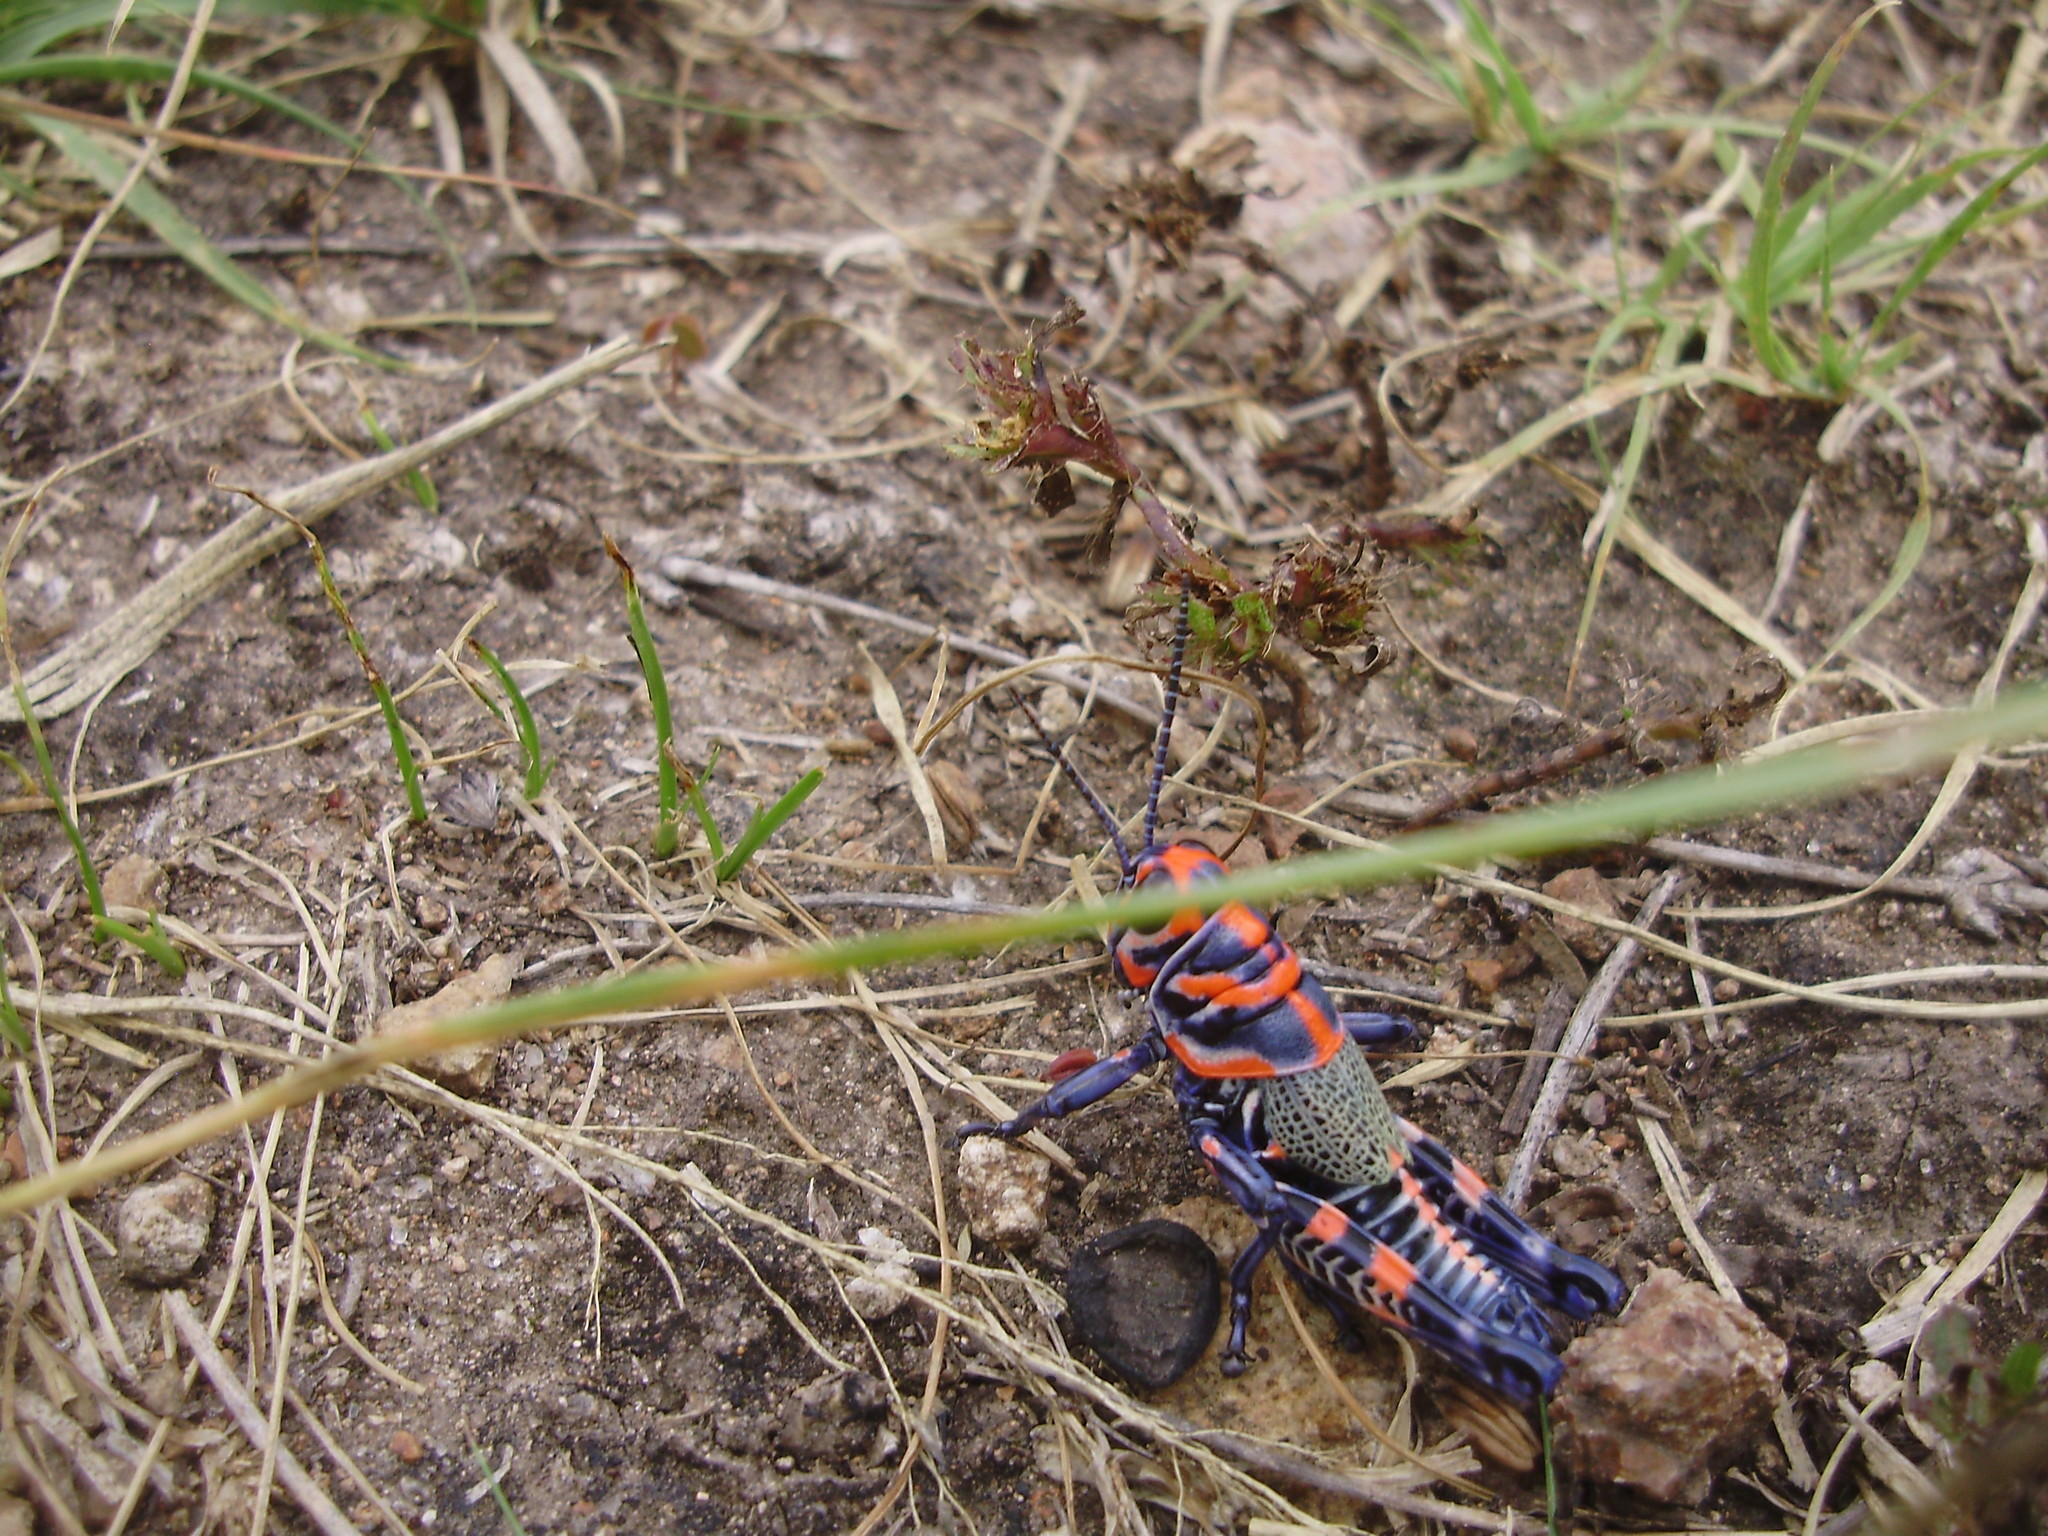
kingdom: Animalia
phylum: Arthropoda
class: Insecta
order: Orthoptera
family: Acrididae
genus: Dactylotum
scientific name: Dactylotum bicolor
